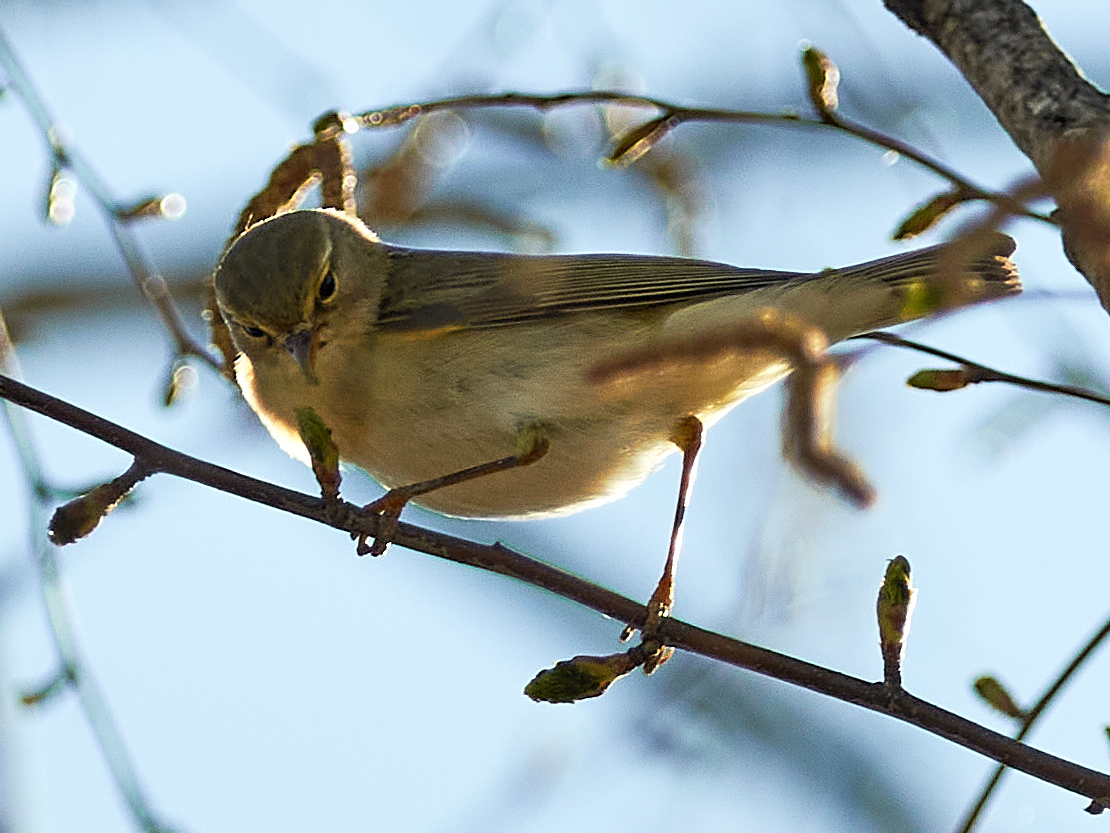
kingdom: Animalia
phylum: Chordata
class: Aves
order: Passeriformes
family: Phylloscopidae
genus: Phylloscopus
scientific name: Phylloscopus trochilus
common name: Willow warbler
